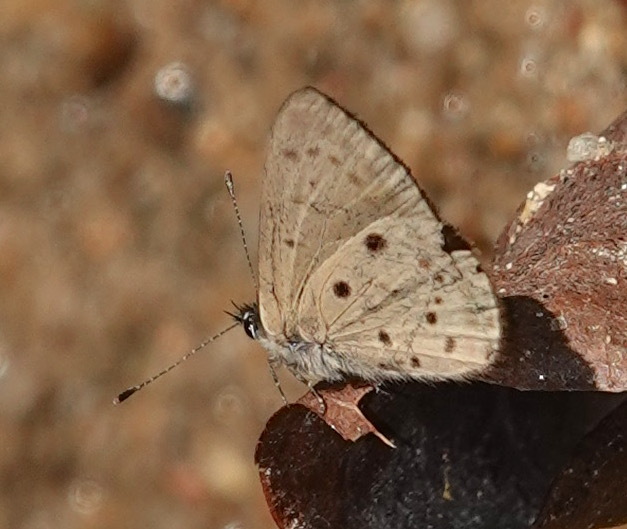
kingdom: Animalia
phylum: Arthropoda
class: Insecta
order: Lepidoptera
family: Lycaenidae
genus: Una
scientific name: Una usta
